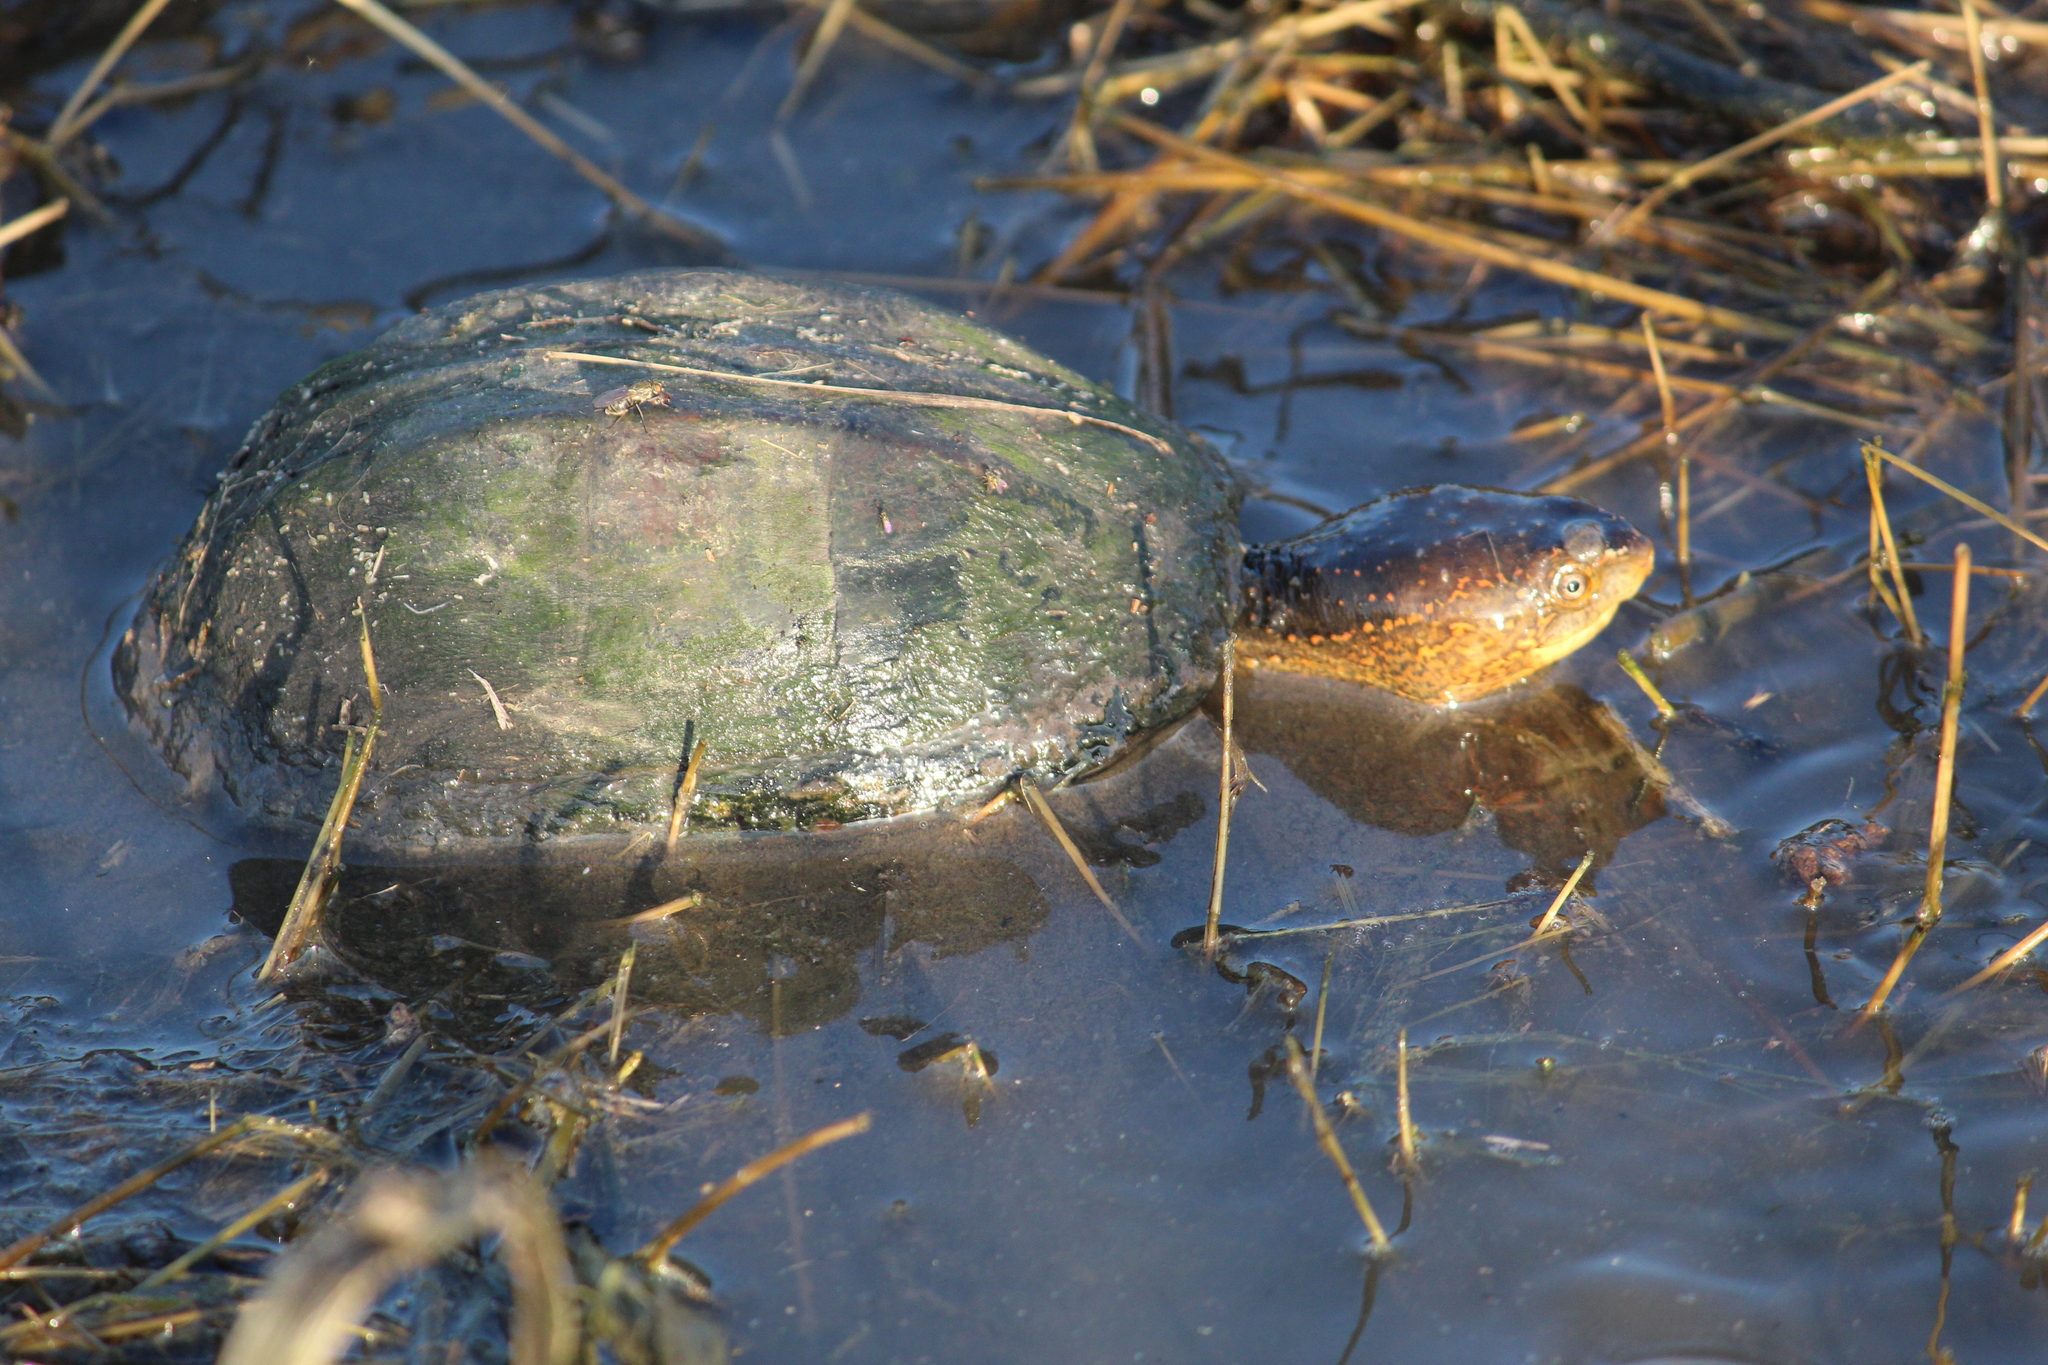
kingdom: Animalia
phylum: Chordata
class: Testudines
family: Kinosternidae
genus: Kinosternon
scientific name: Kinosternon scorpioides
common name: Scorpion mud turtle
